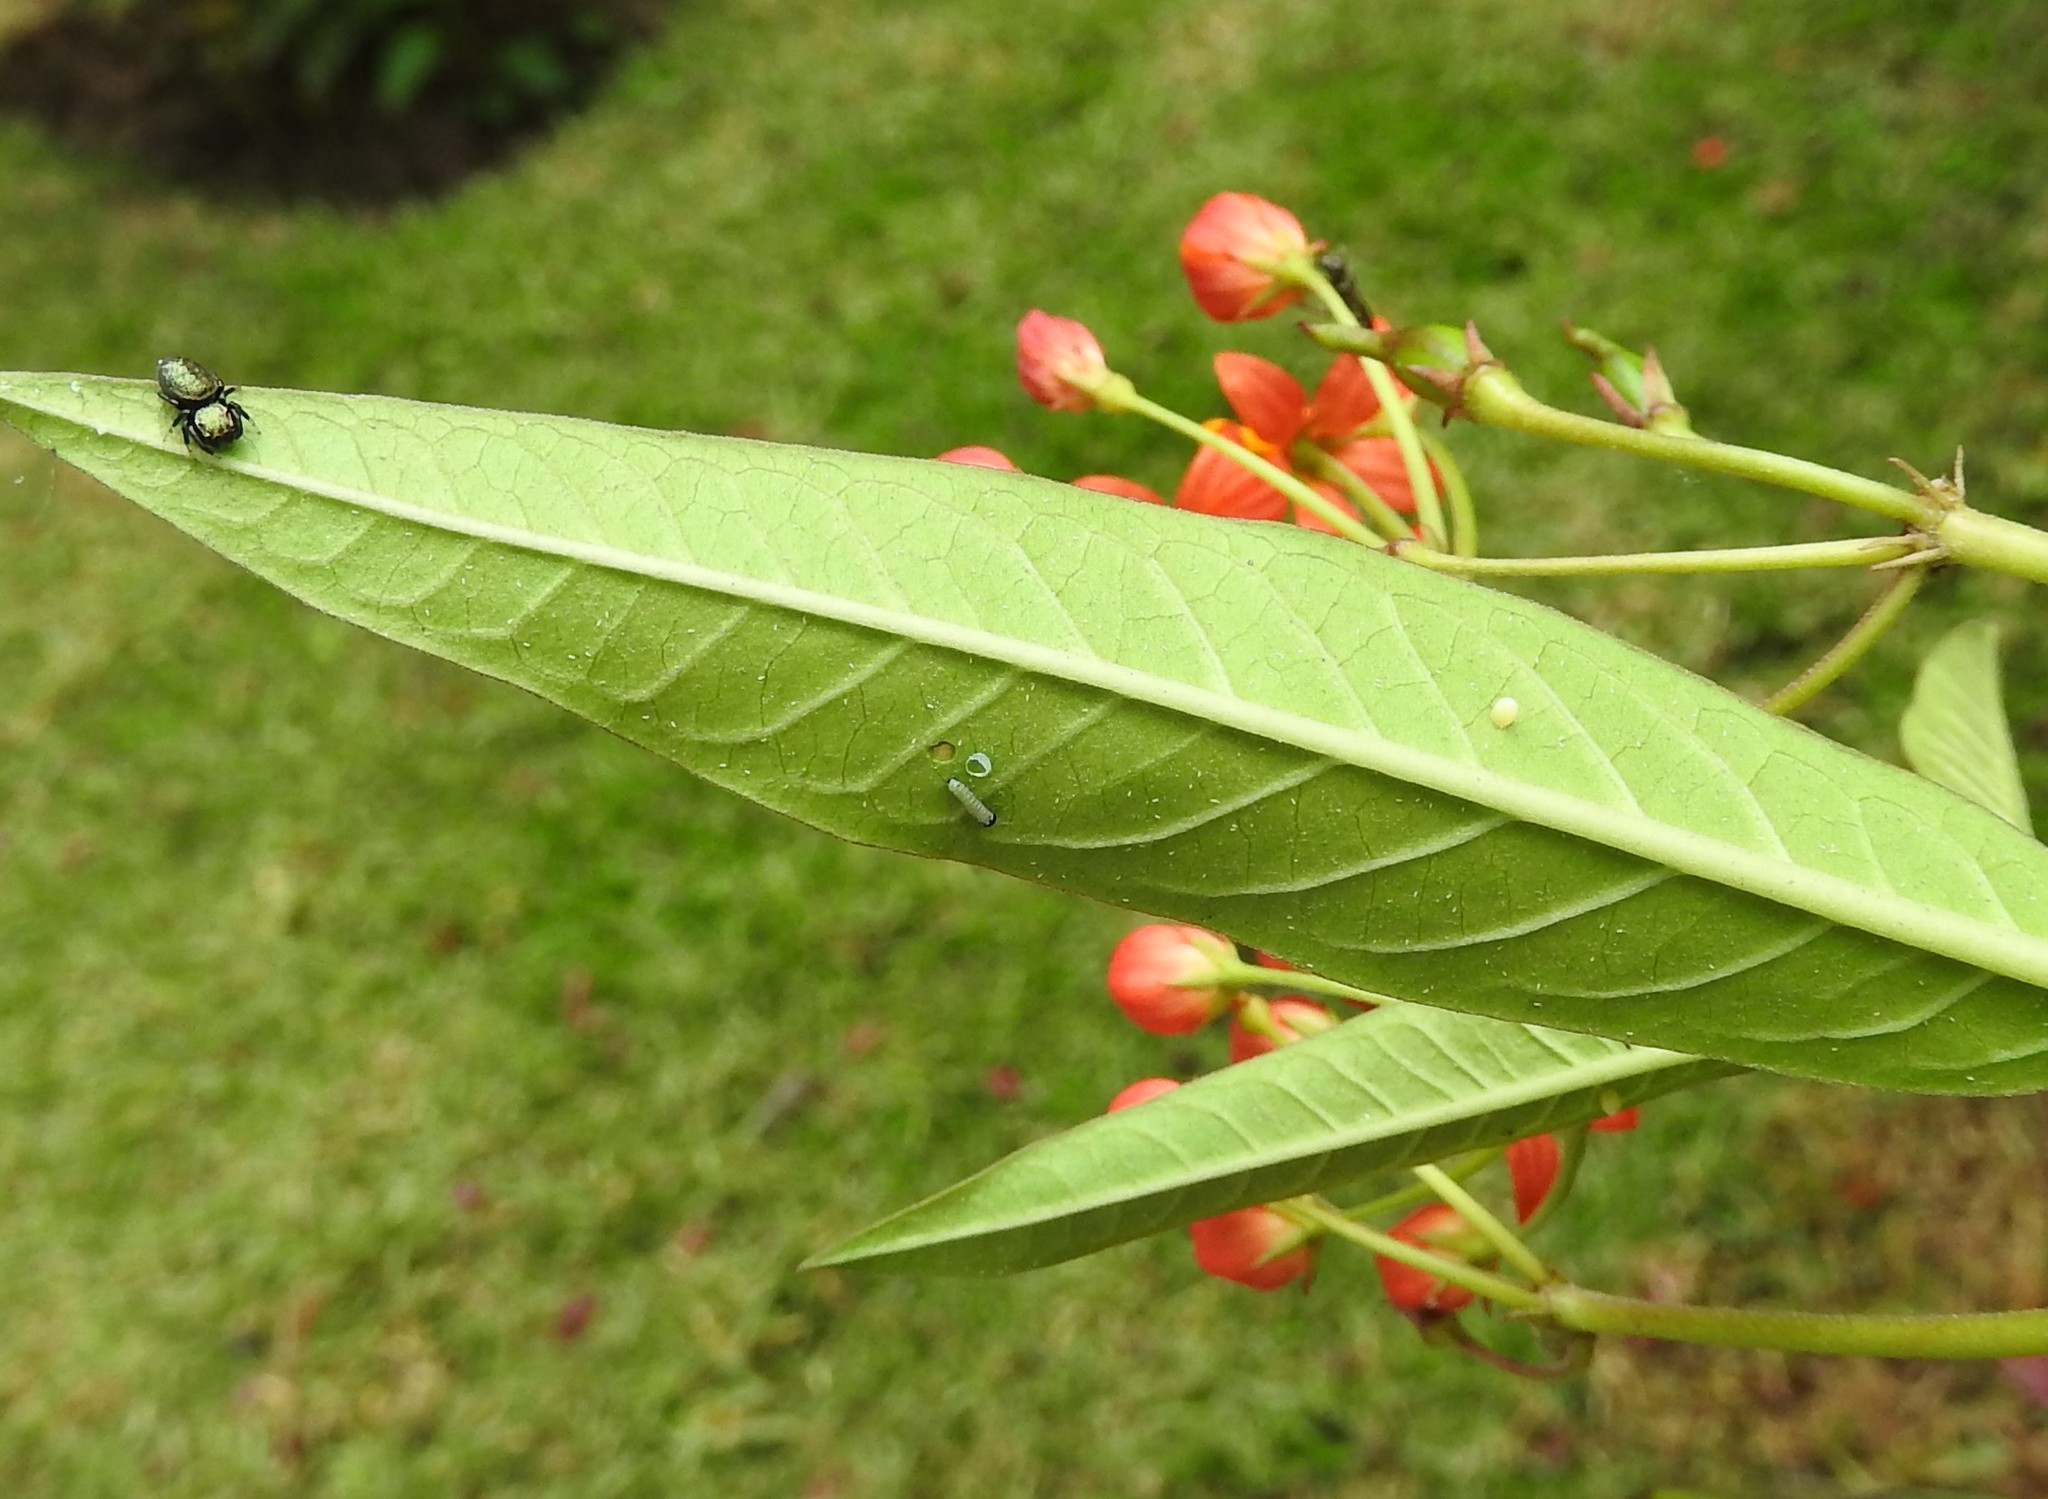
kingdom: Animalia
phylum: Arthropoda
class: Insecta
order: Lepidoptera
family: Nymphalidae
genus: Danaus
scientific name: Danaus plexippus
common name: Monarch
